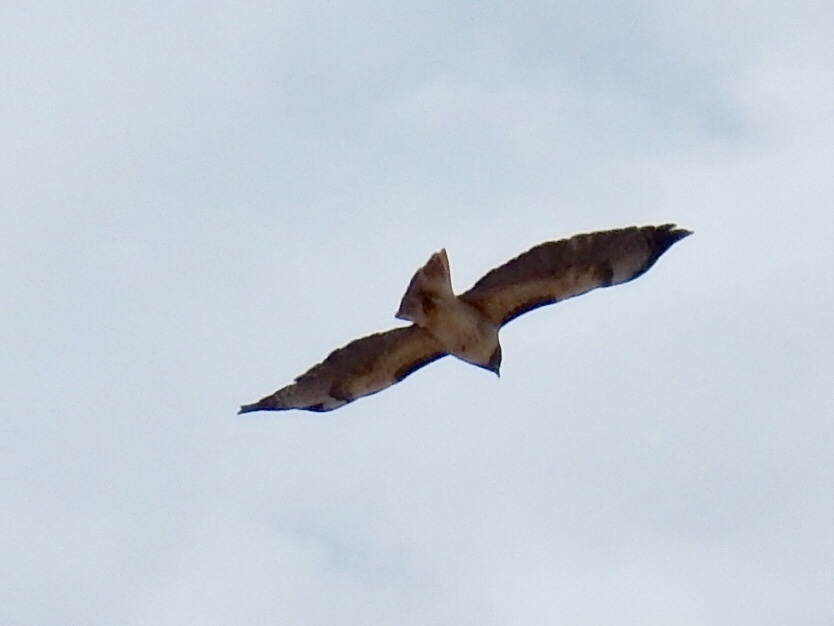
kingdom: Animalia
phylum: Chordata
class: Aves
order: Accipitriformes
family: Accipitridae
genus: Buteo
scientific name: Buteo jamaicensis
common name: Red-tailed hawk
